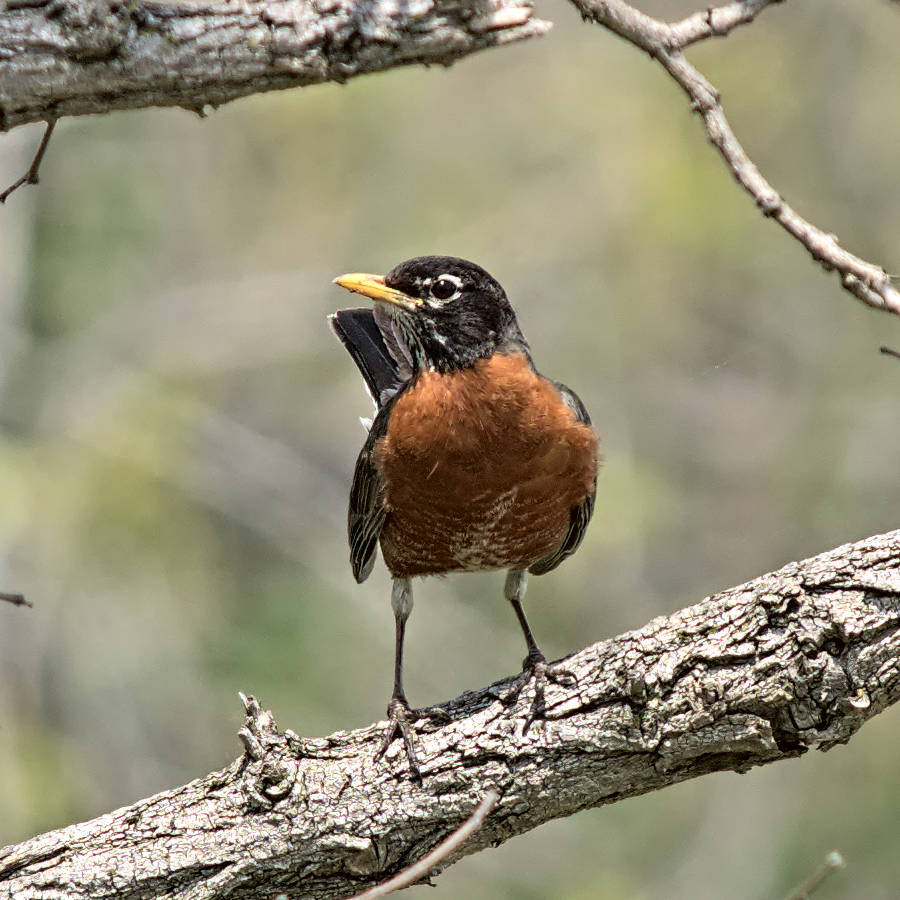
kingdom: Animalia
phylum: Chordata
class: Aves
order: Passeriformes
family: Turdidae
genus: Turdus
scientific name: Turdus migratorius
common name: American robin
